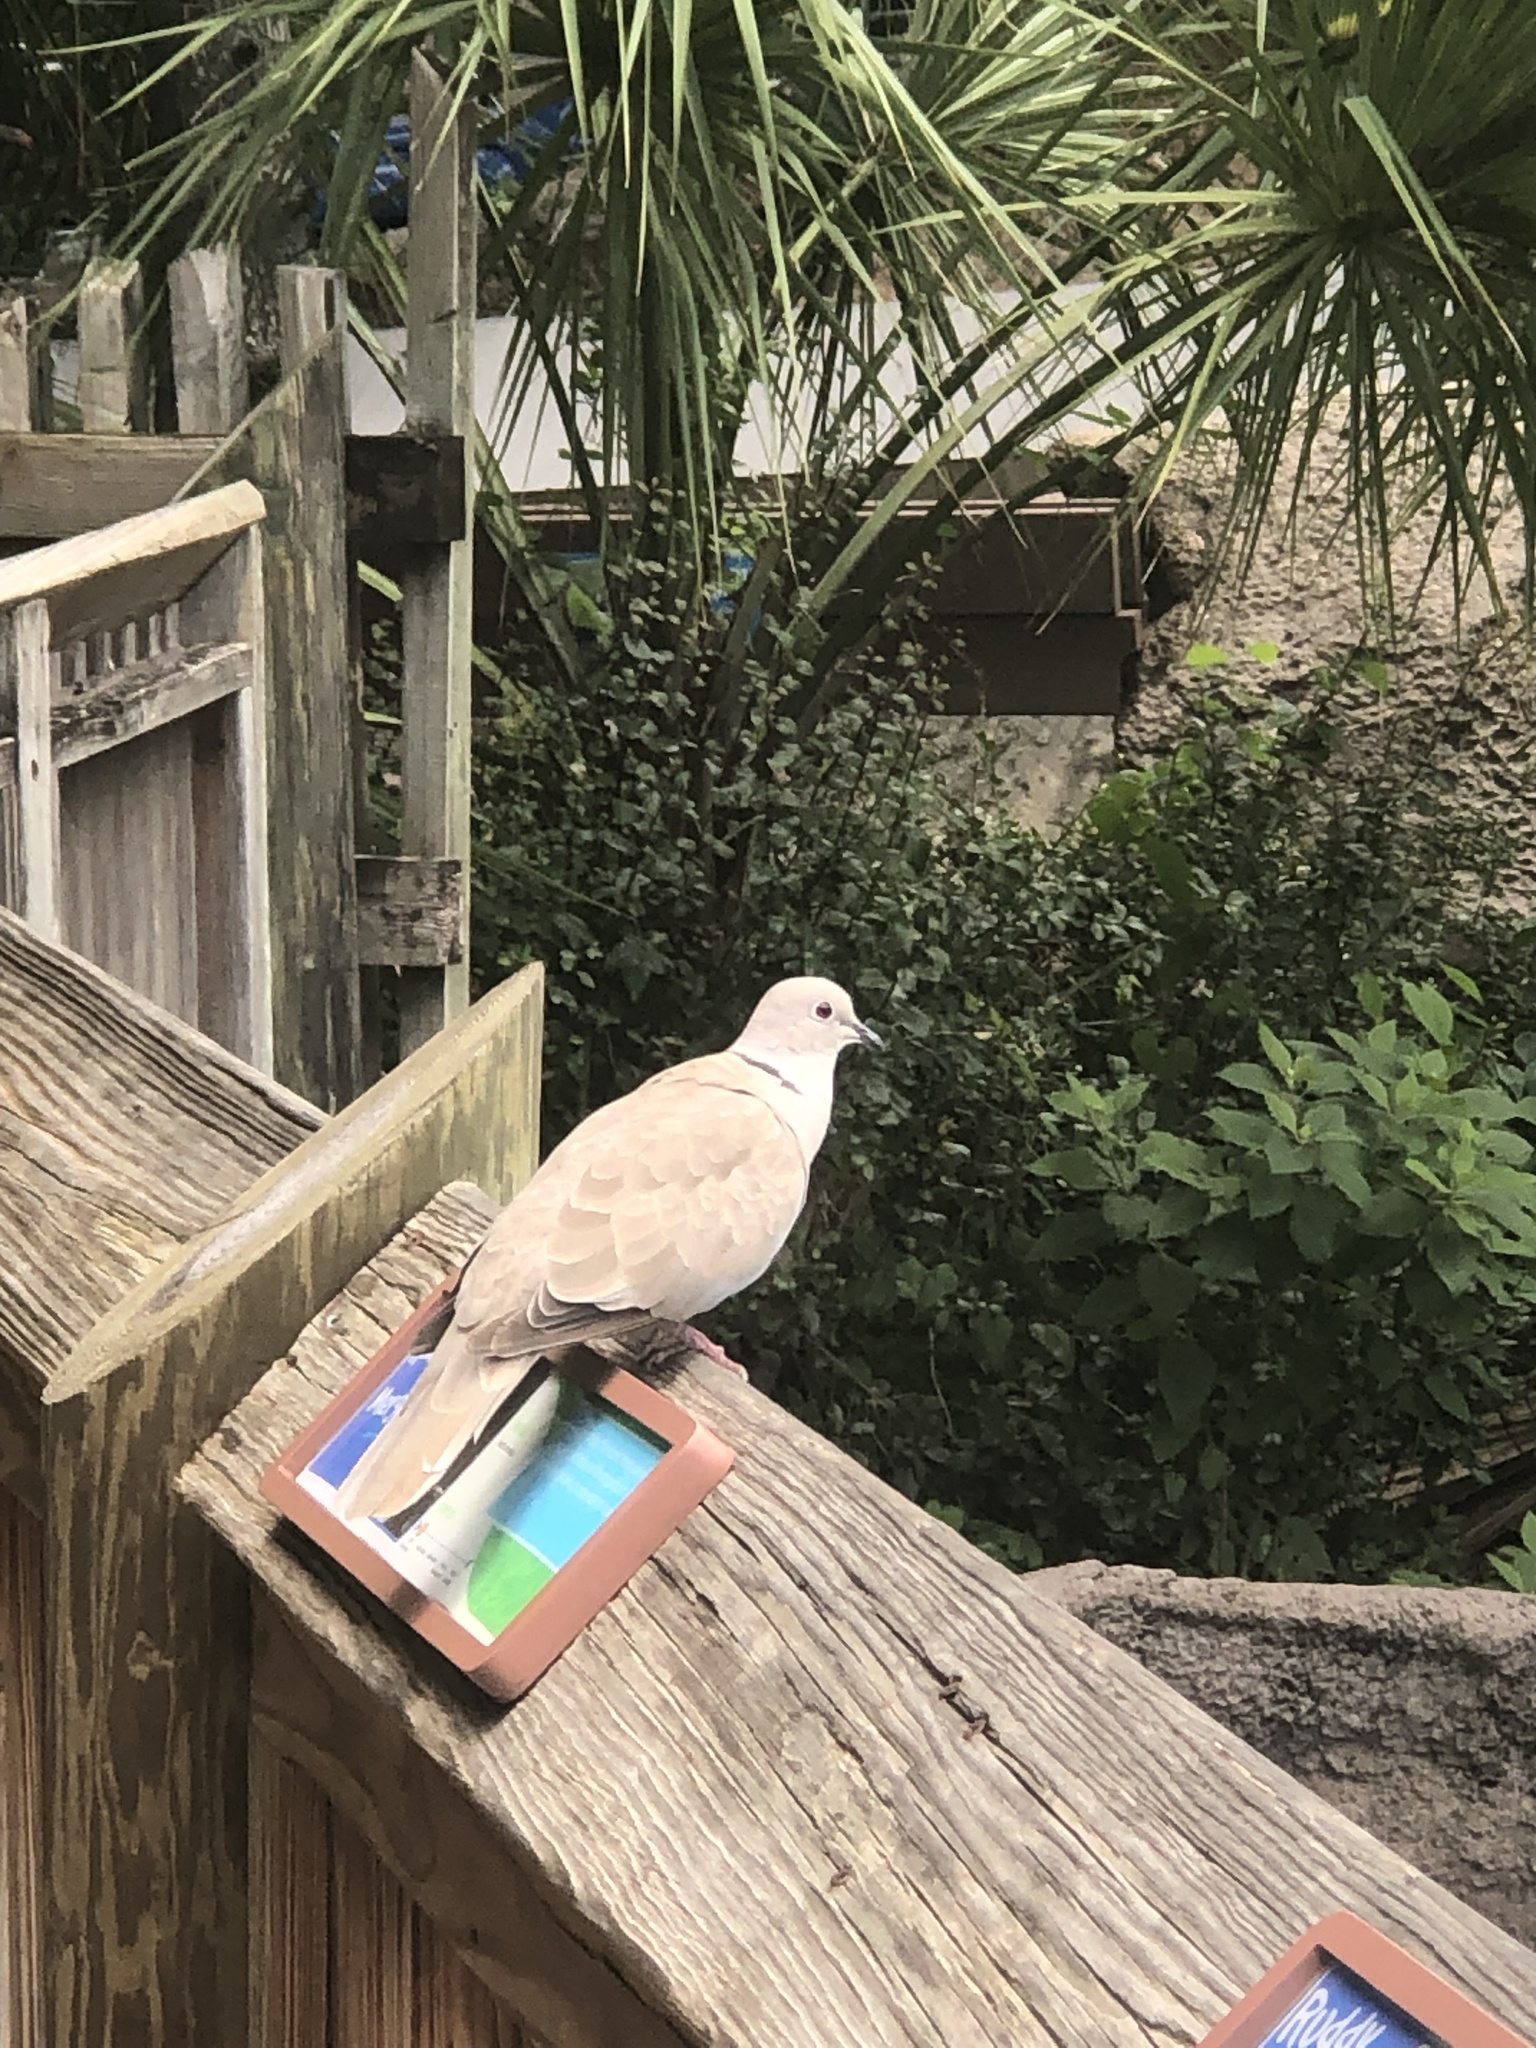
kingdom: Animalia
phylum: Chordata
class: Aves
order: Columbiformes
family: Columbidae
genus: Streptopelia
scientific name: Streptopelia decaocto
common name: Eurasian collared dove
